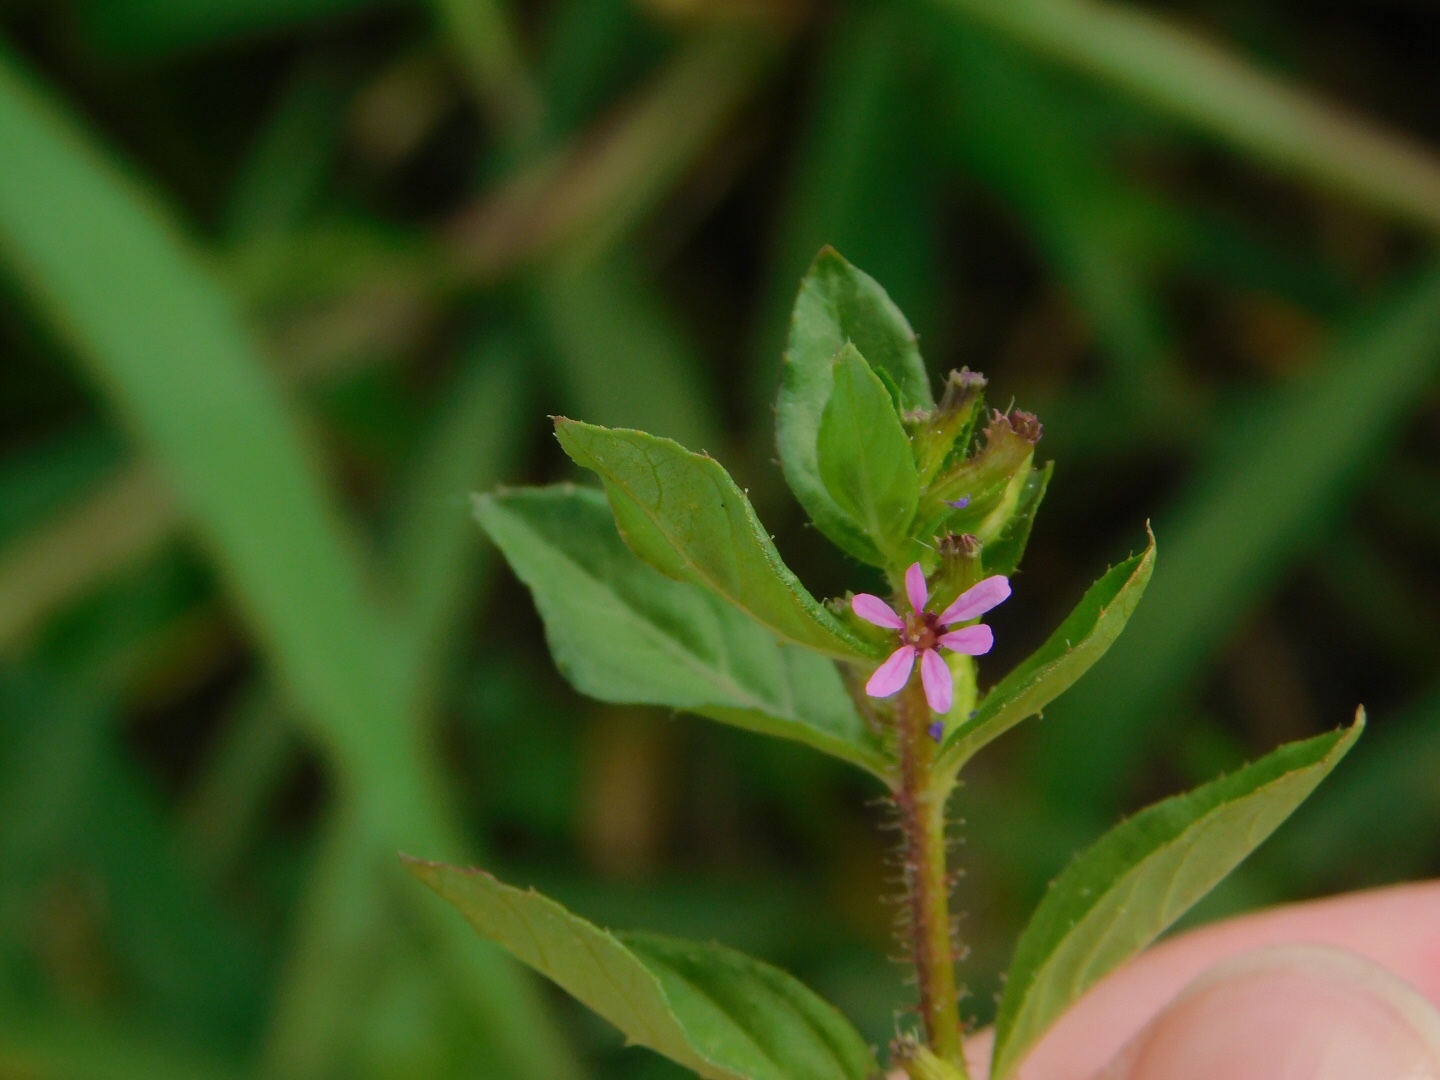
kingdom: Plantae
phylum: Tracheophyta
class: Magnoliopsida
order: Myrtales
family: Lythraceae
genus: Cuphea
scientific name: Cuphea carthagenensis
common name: Colombian waxweed
